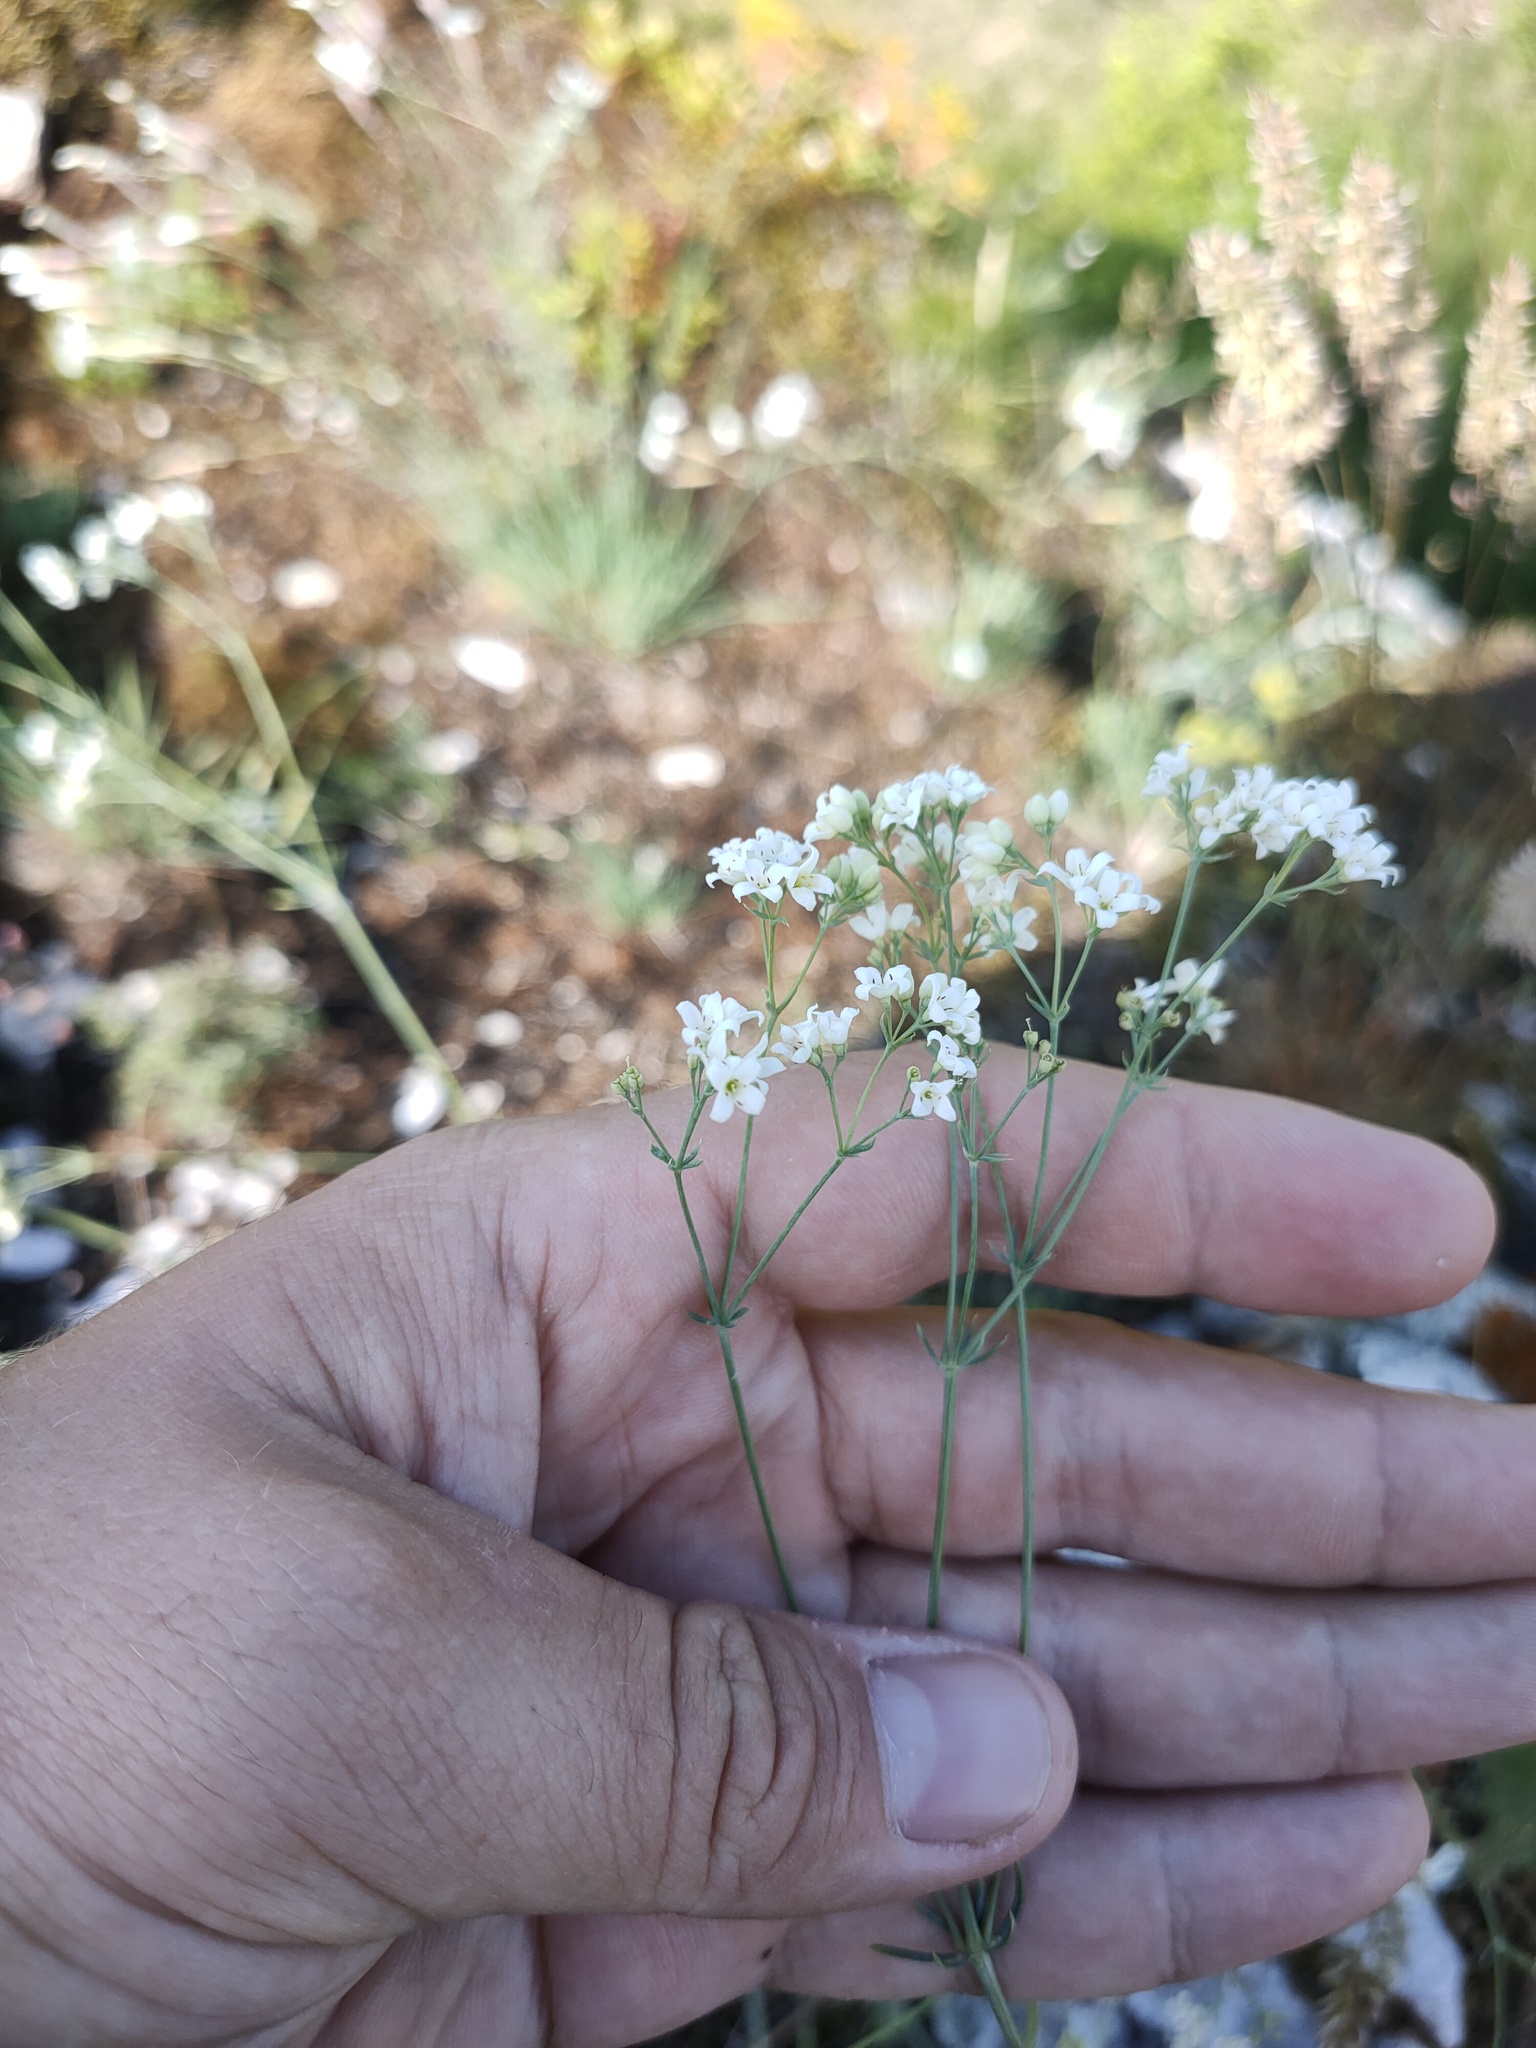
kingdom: Plantae
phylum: Tracheophyta
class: Magnoliopsida
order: Gentianales
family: Rubiaceae
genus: Galium
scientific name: Galium octonarium
